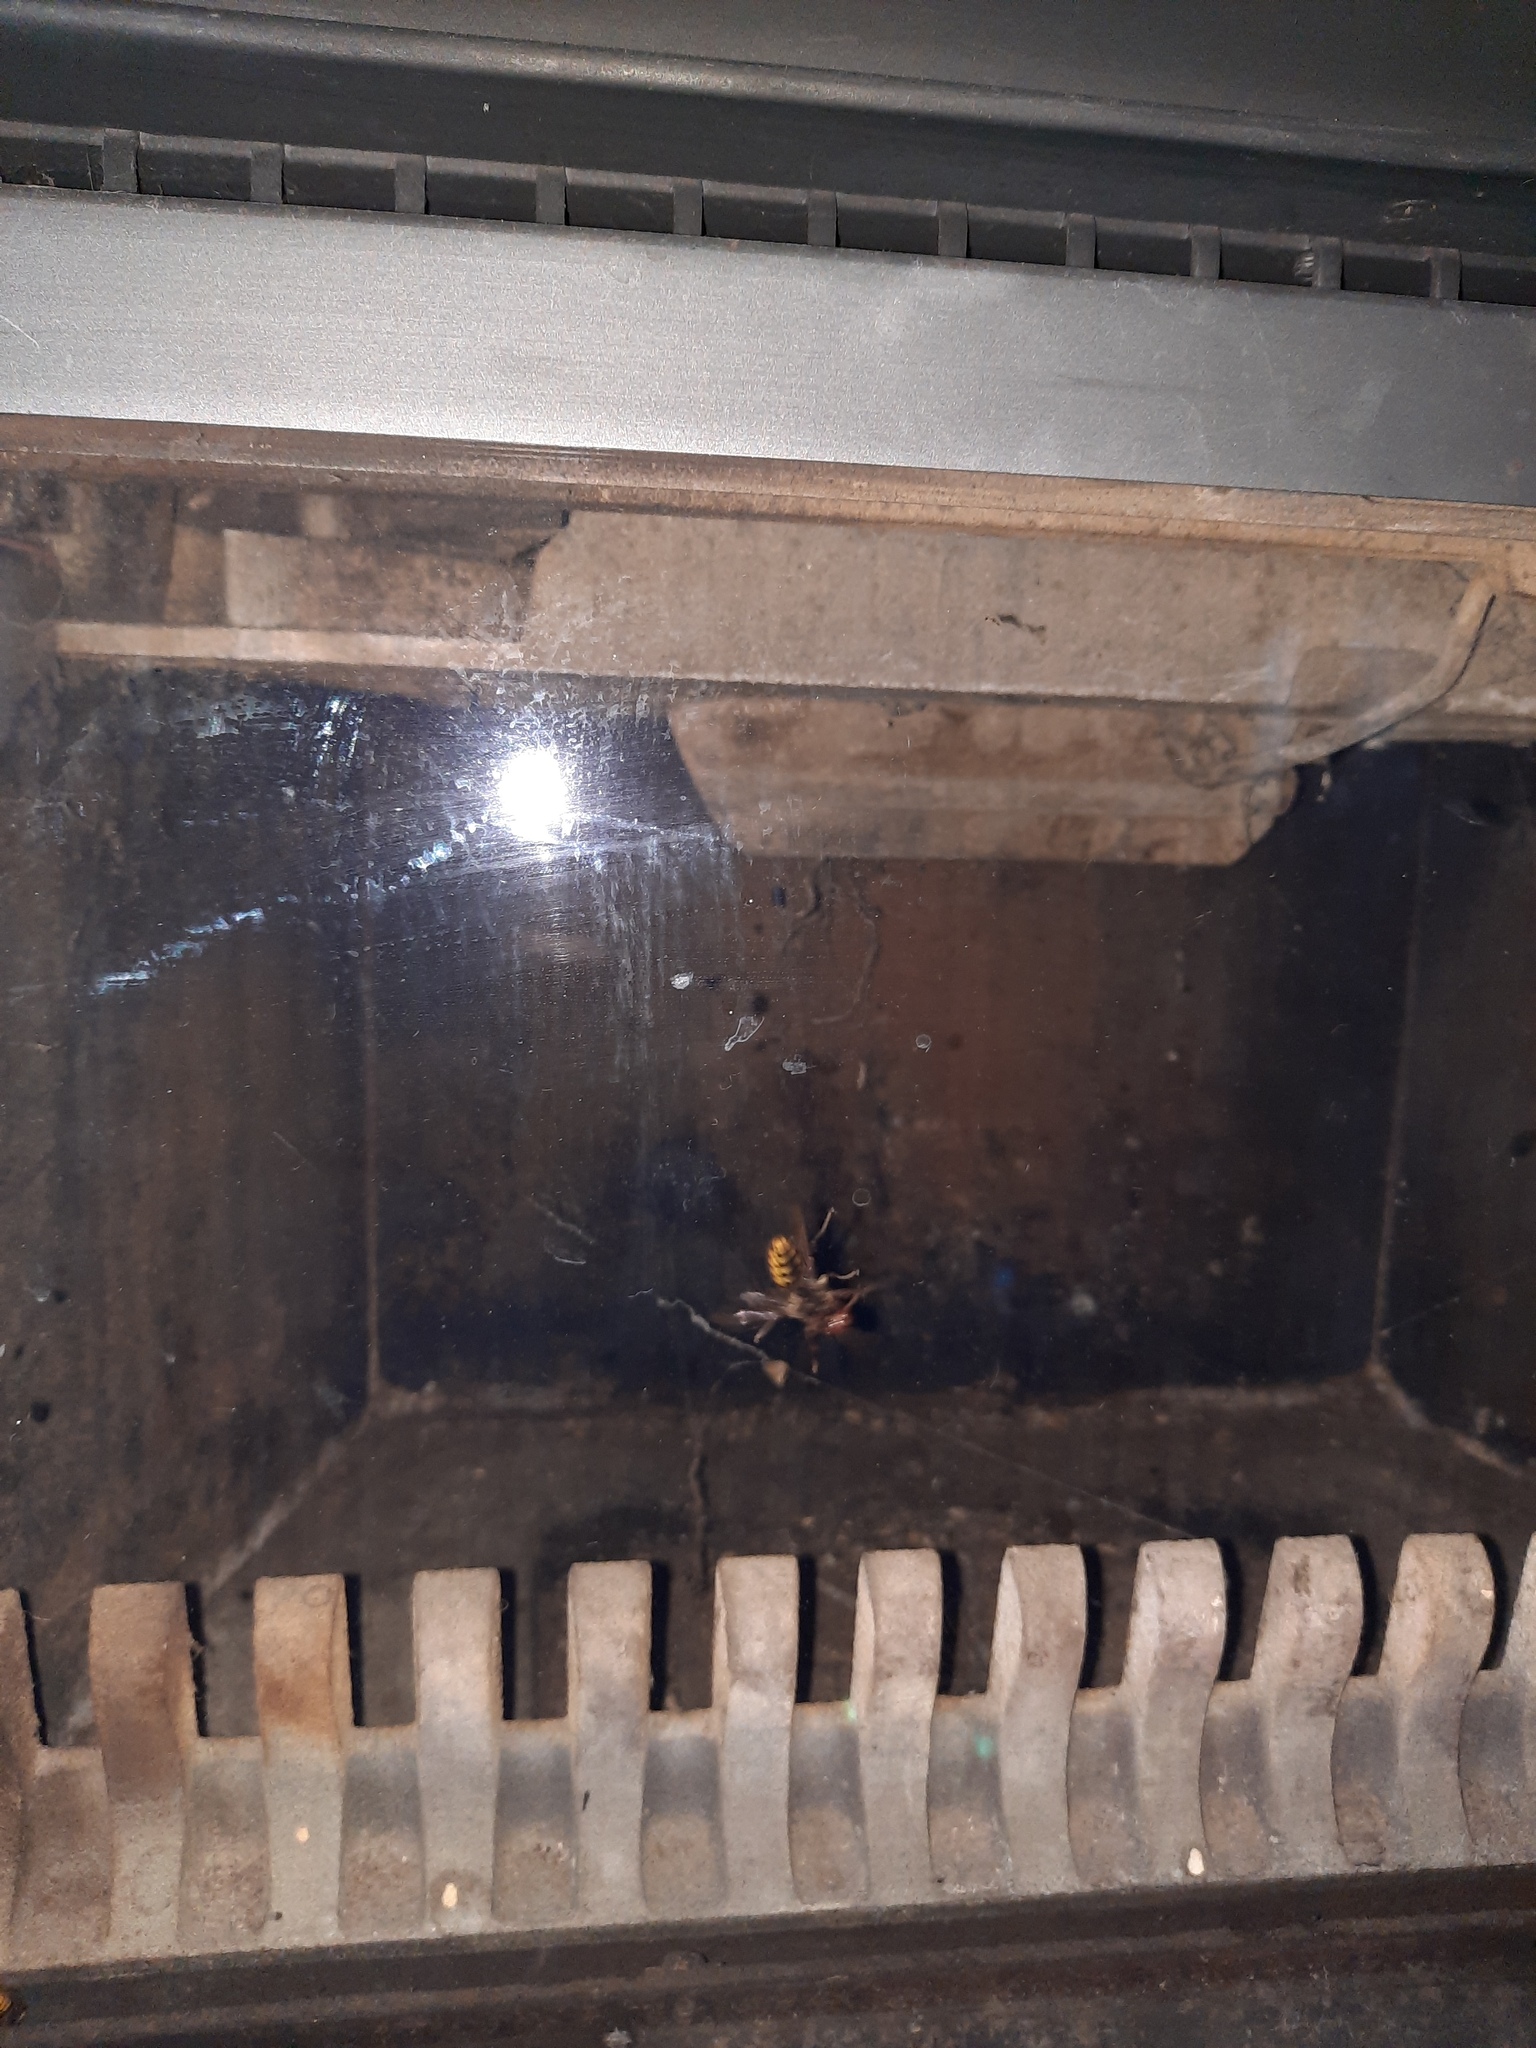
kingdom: Animalia
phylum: Arthropoda
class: Insecta
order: Hymenoptera
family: Vespidae
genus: Vespa
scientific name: Vespa crabro
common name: Hornet
